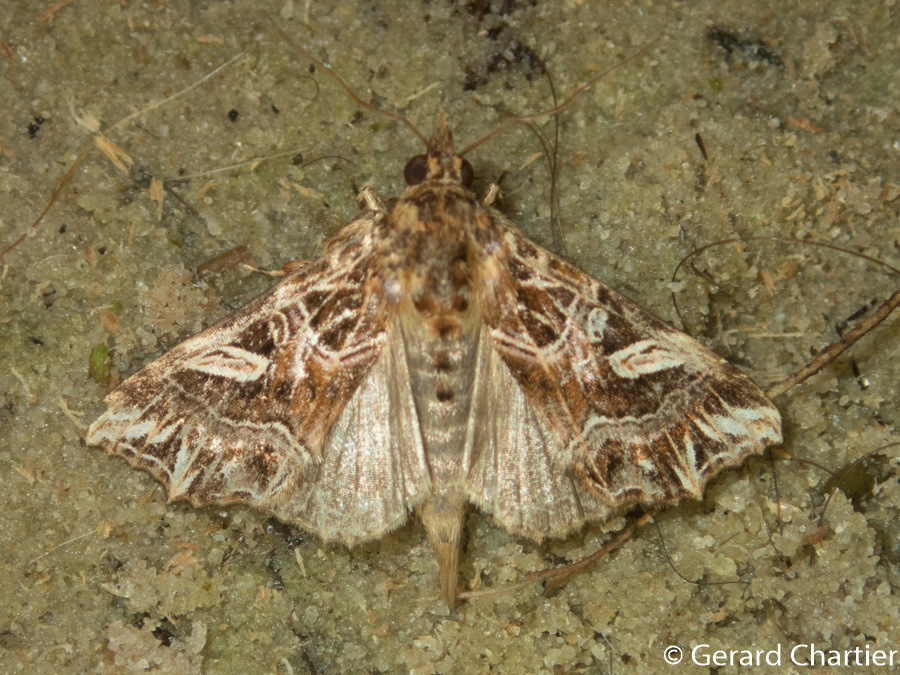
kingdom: Animalia
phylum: Arthropoda
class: Insecta
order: Lepidoptera
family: Noctuidae
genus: Callopistria
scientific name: Callopistria exotica
